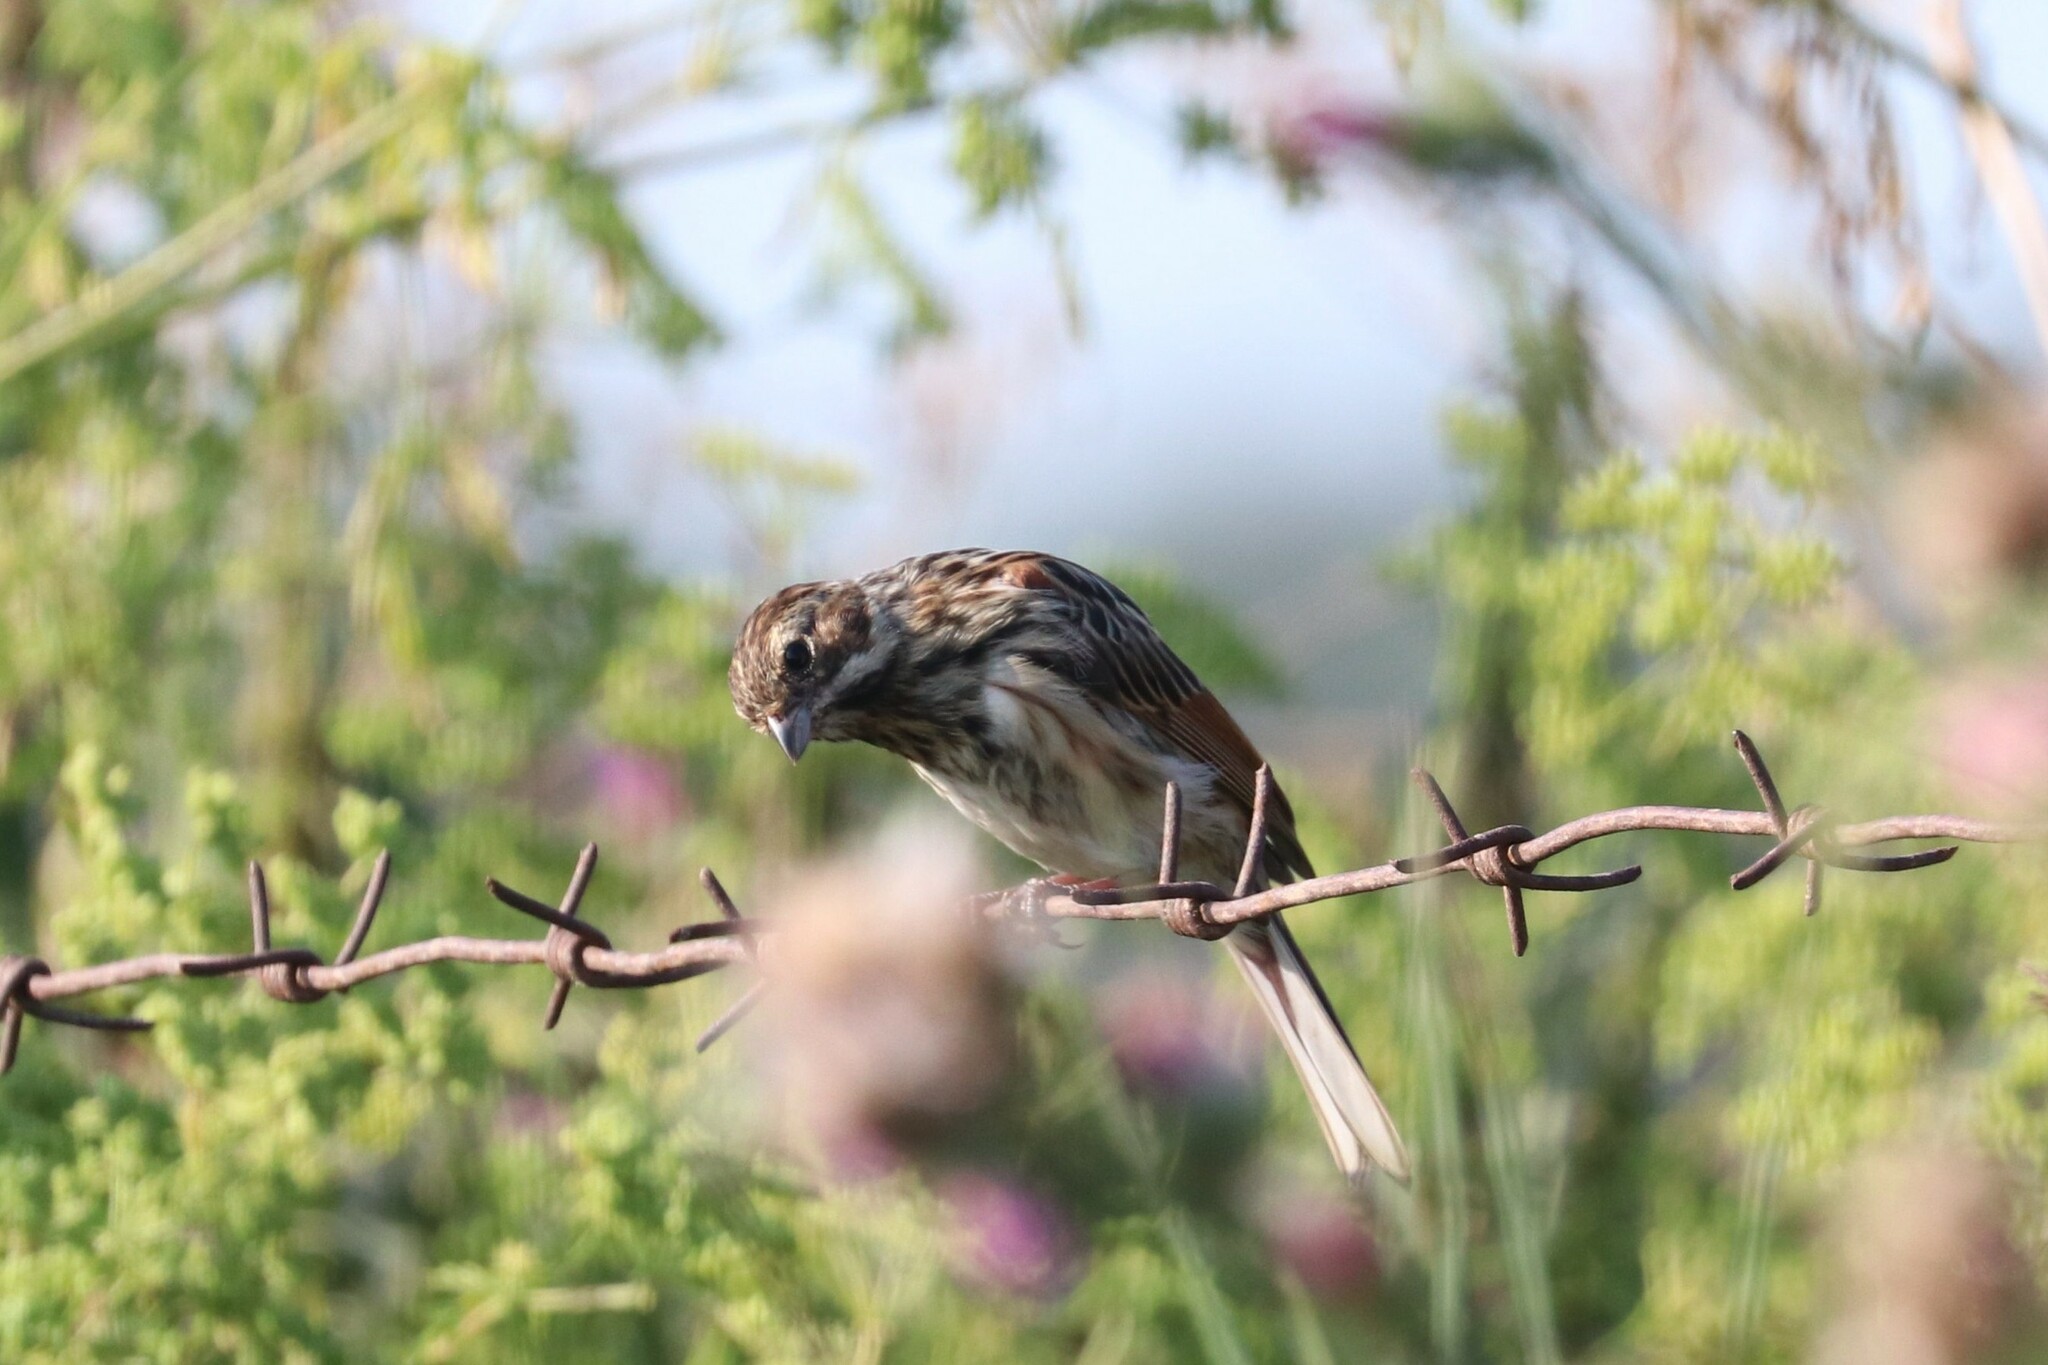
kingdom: Animalia
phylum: Chordata
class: Aves
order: Passeriformes
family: Emberizidae
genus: Emberiza
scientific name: Emberiza schoeniclus
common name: Reed bunting
